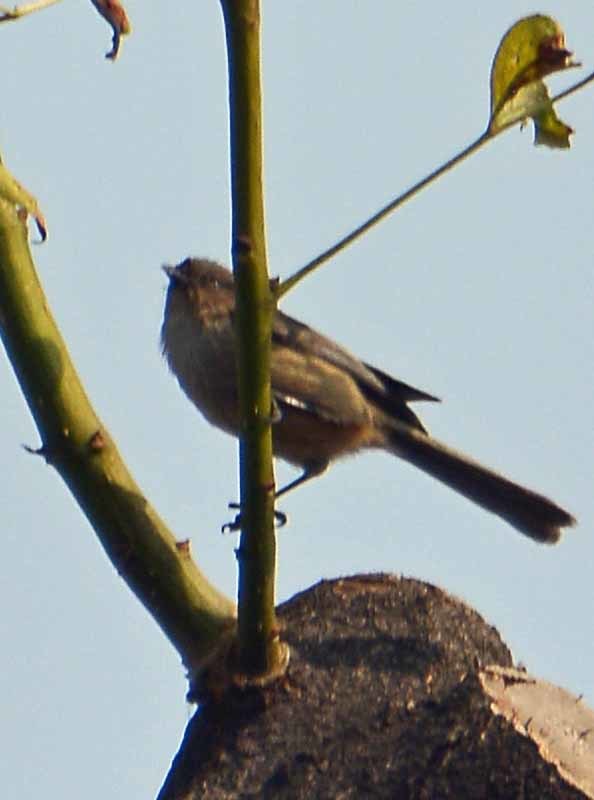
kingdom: Animalia
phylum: Chordata
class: Aves
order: Passeriformes
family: Aegithalidae
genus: Psaltriparus
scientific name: Psaltriparus minimus
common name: American bushtit
